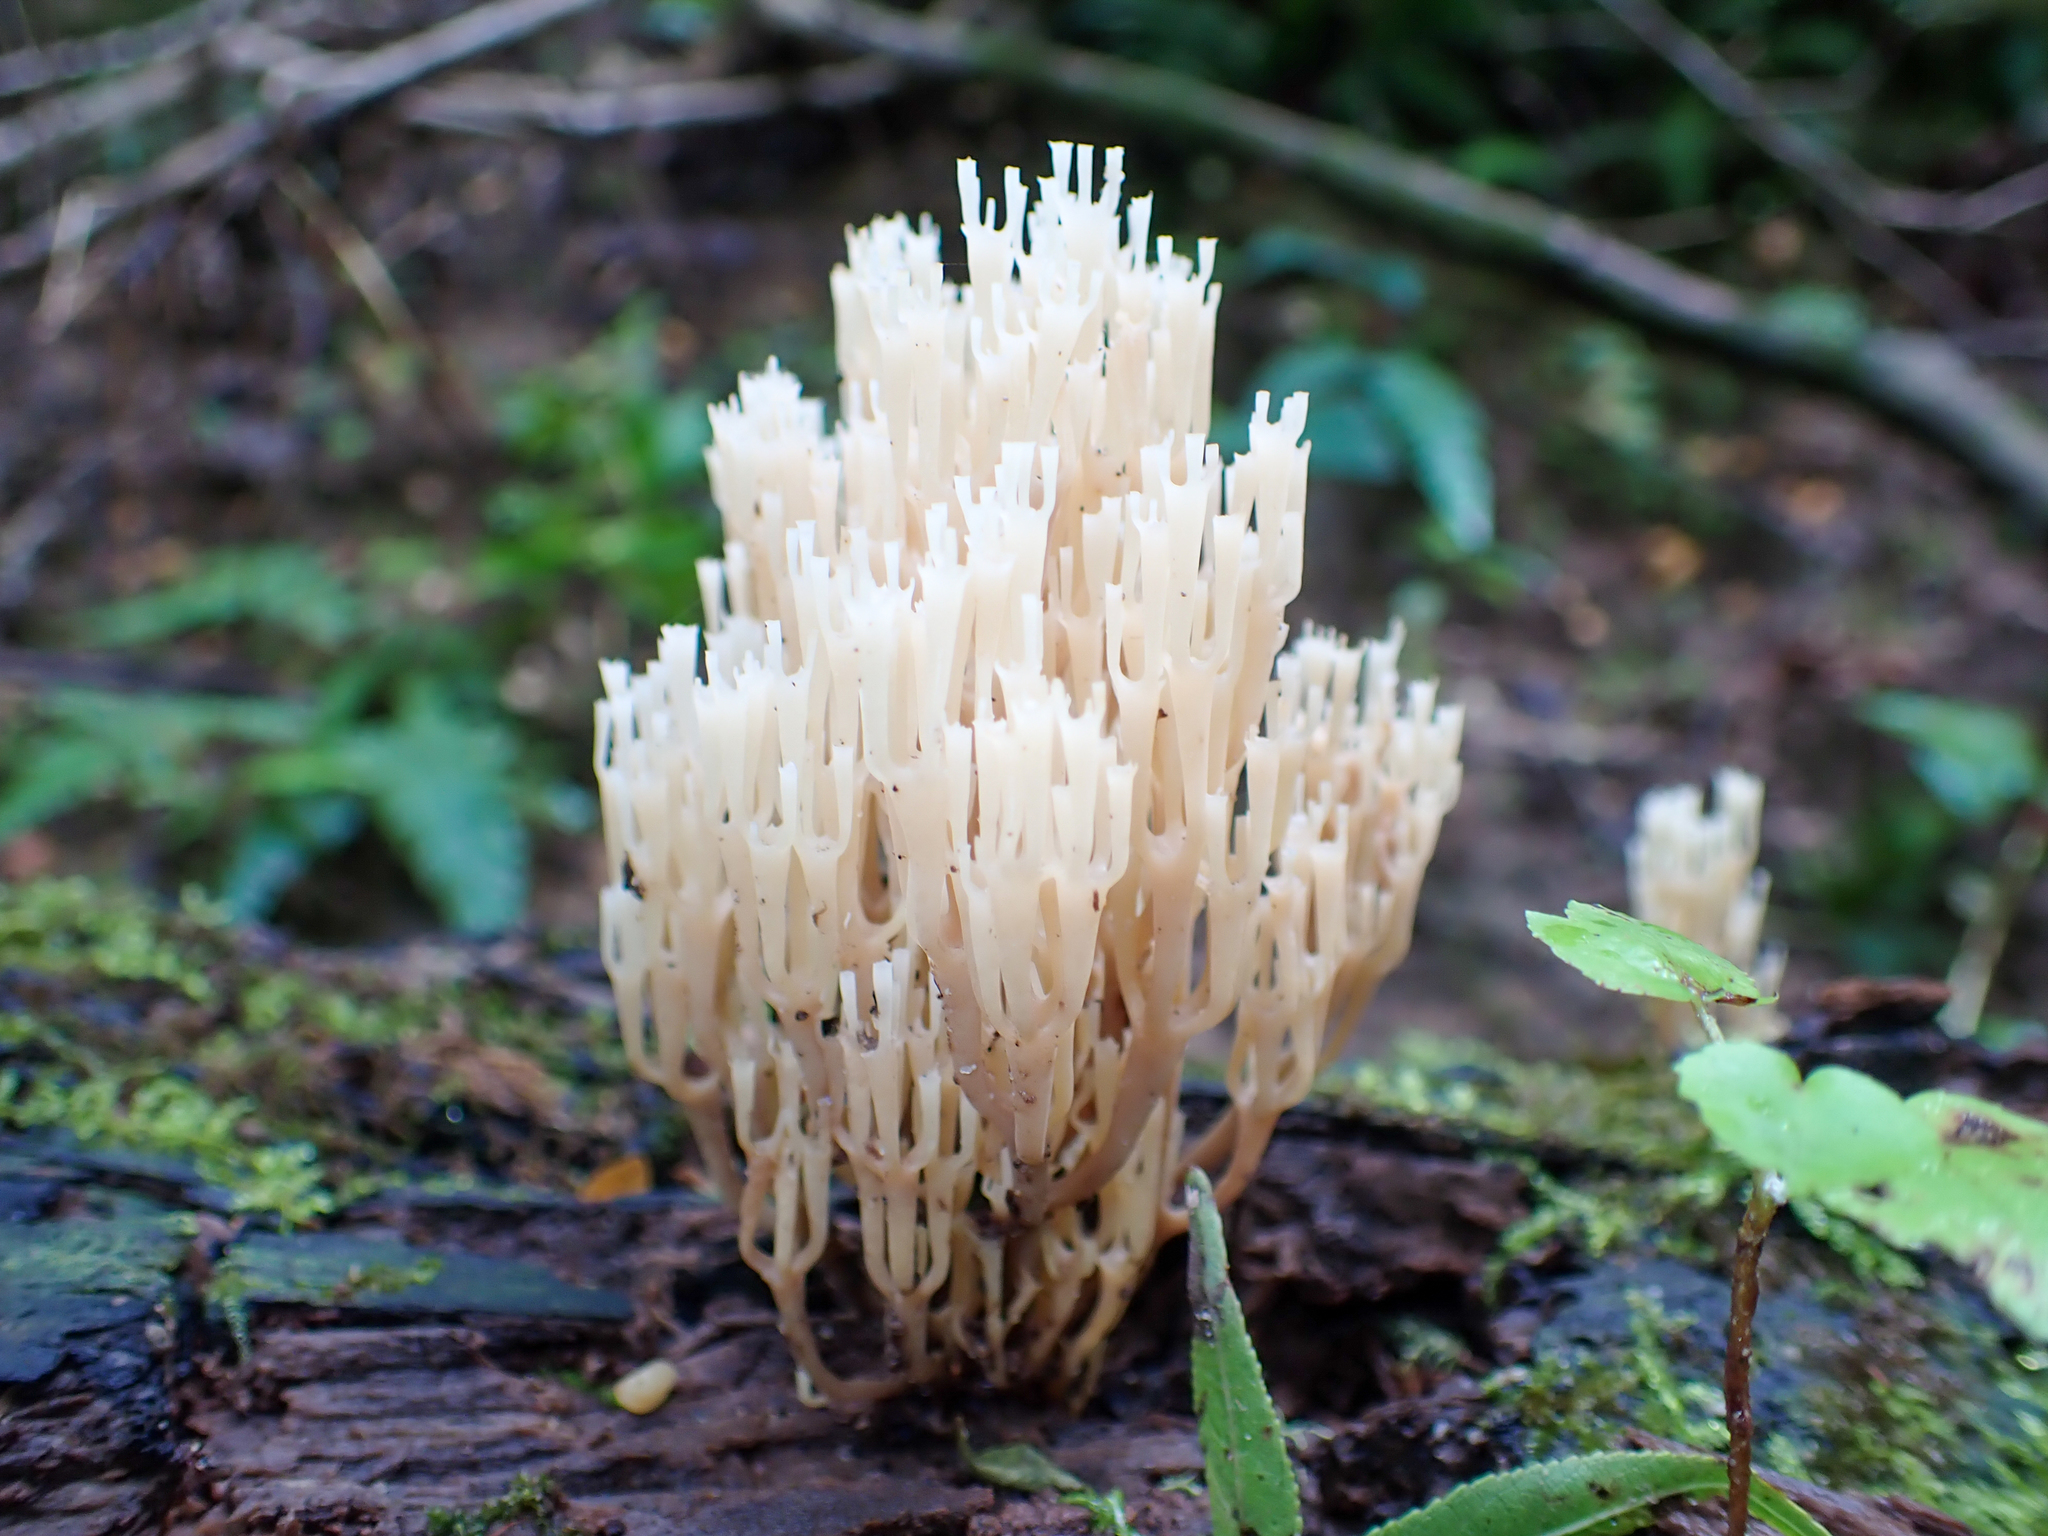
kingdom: Fungi
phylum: Basidiomycota
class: Agaricomycetes
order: Russulales
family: Auriscalpiaceae
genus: Artomyces
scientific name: Artomyces pyxidatus
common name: Crown-tipped coral fungus
